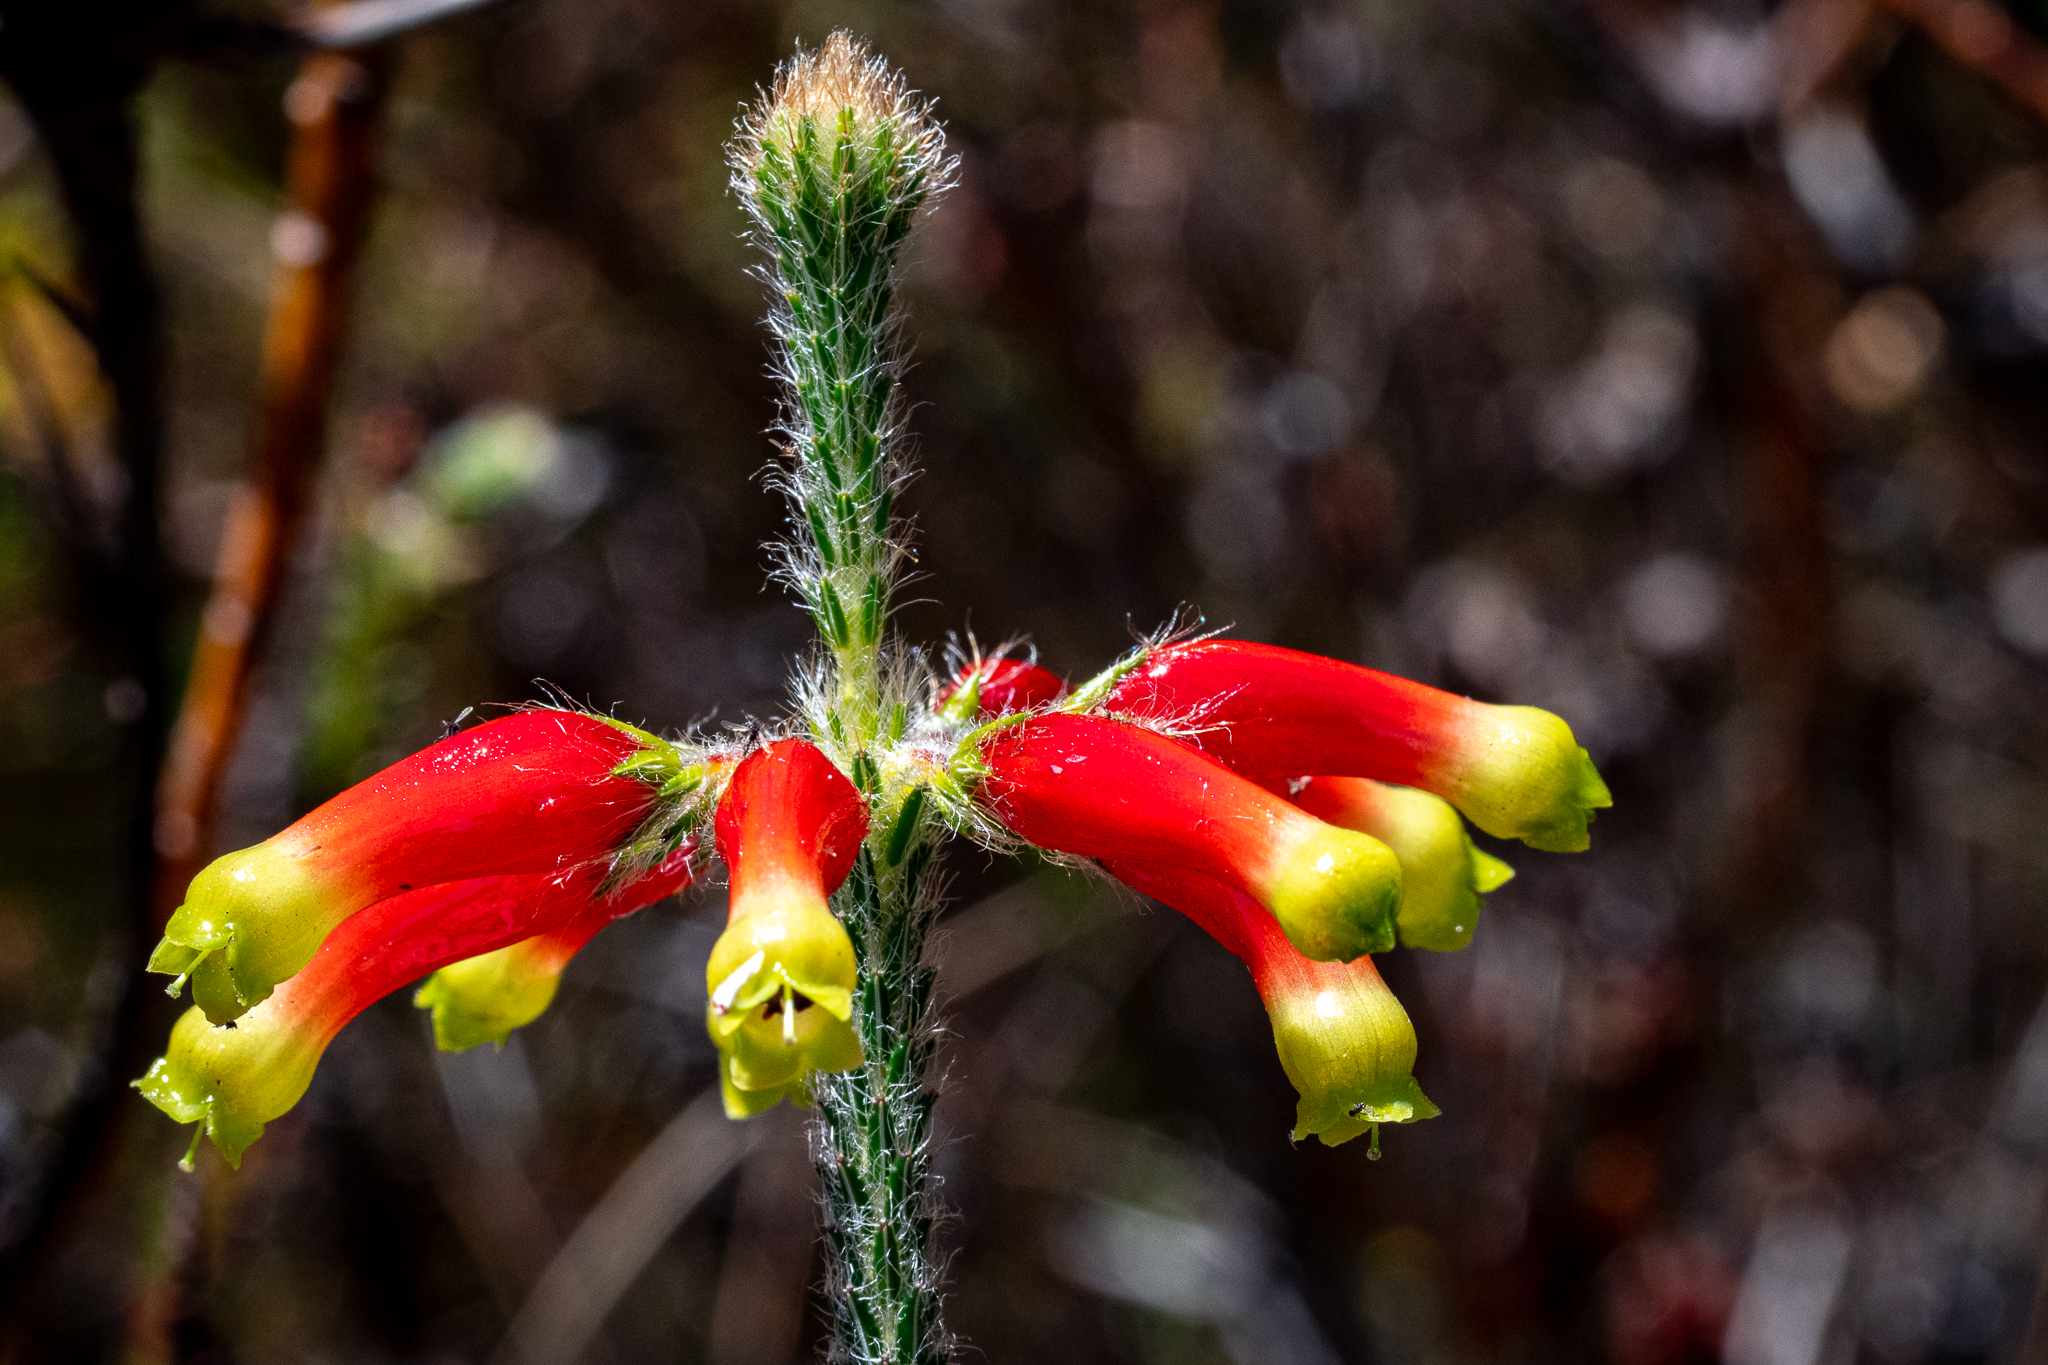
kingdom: Plantae
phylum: Tracheophyta
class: Magnoliopsida
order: Ericales
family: Ericaceae
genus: Erica
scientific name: Erica massonii
